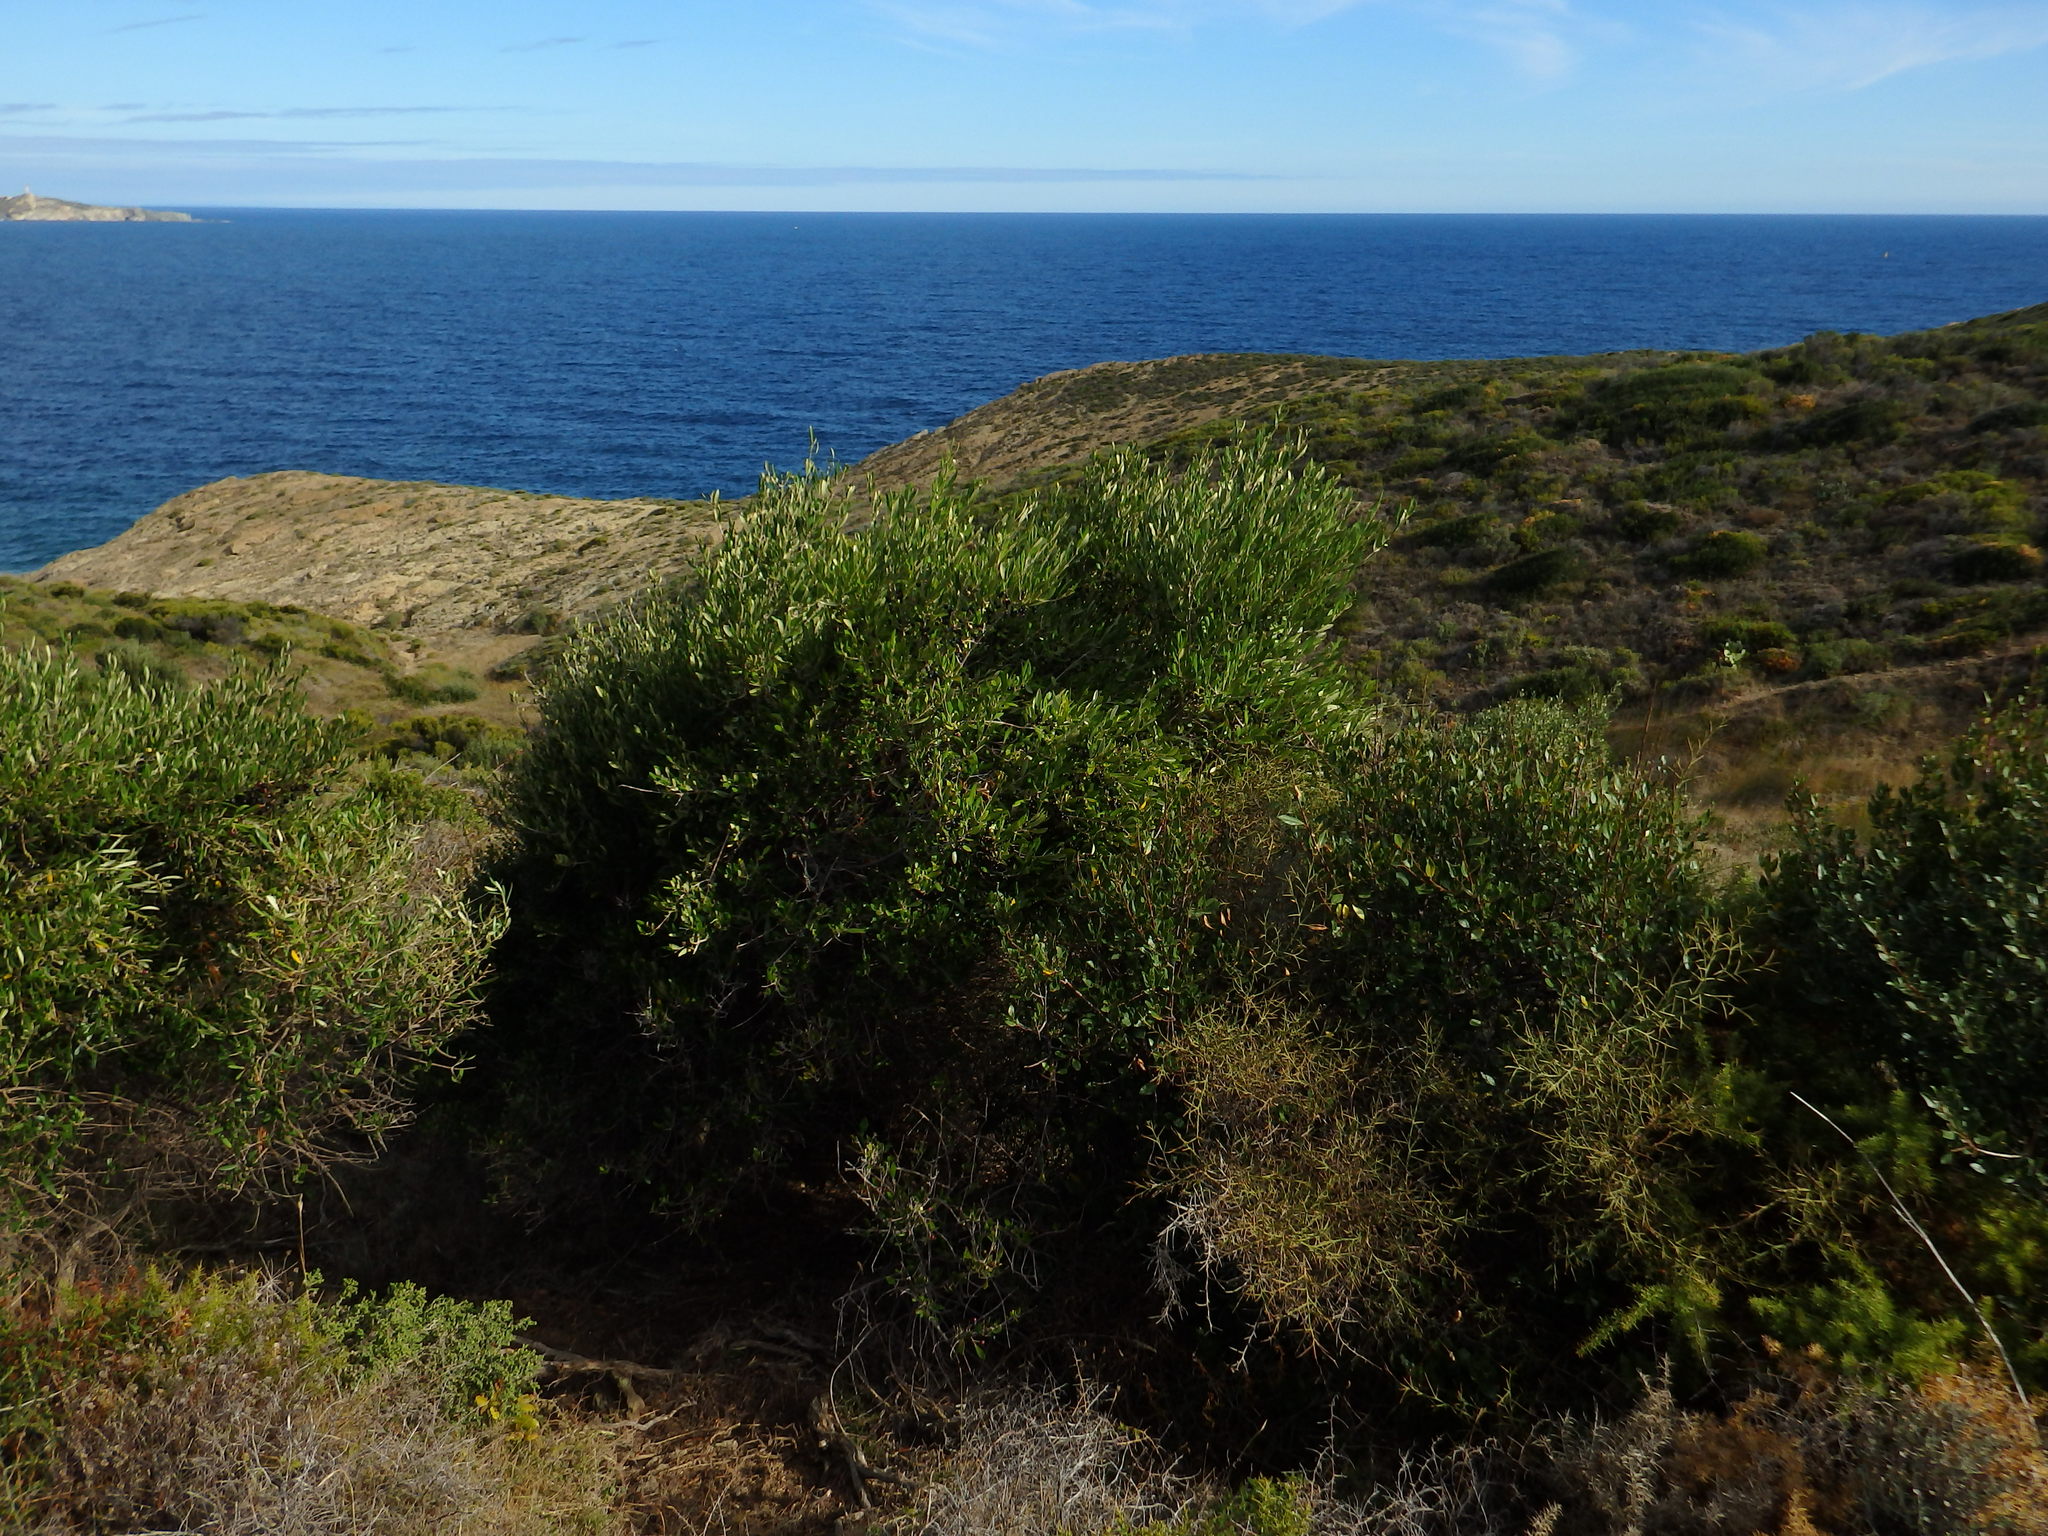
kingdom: Plantae
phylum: Tracheophyta
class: Magnoliopsida
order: Lamiales
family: Oleaceae
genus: Olea
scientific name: Olea europaea
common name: Olive
